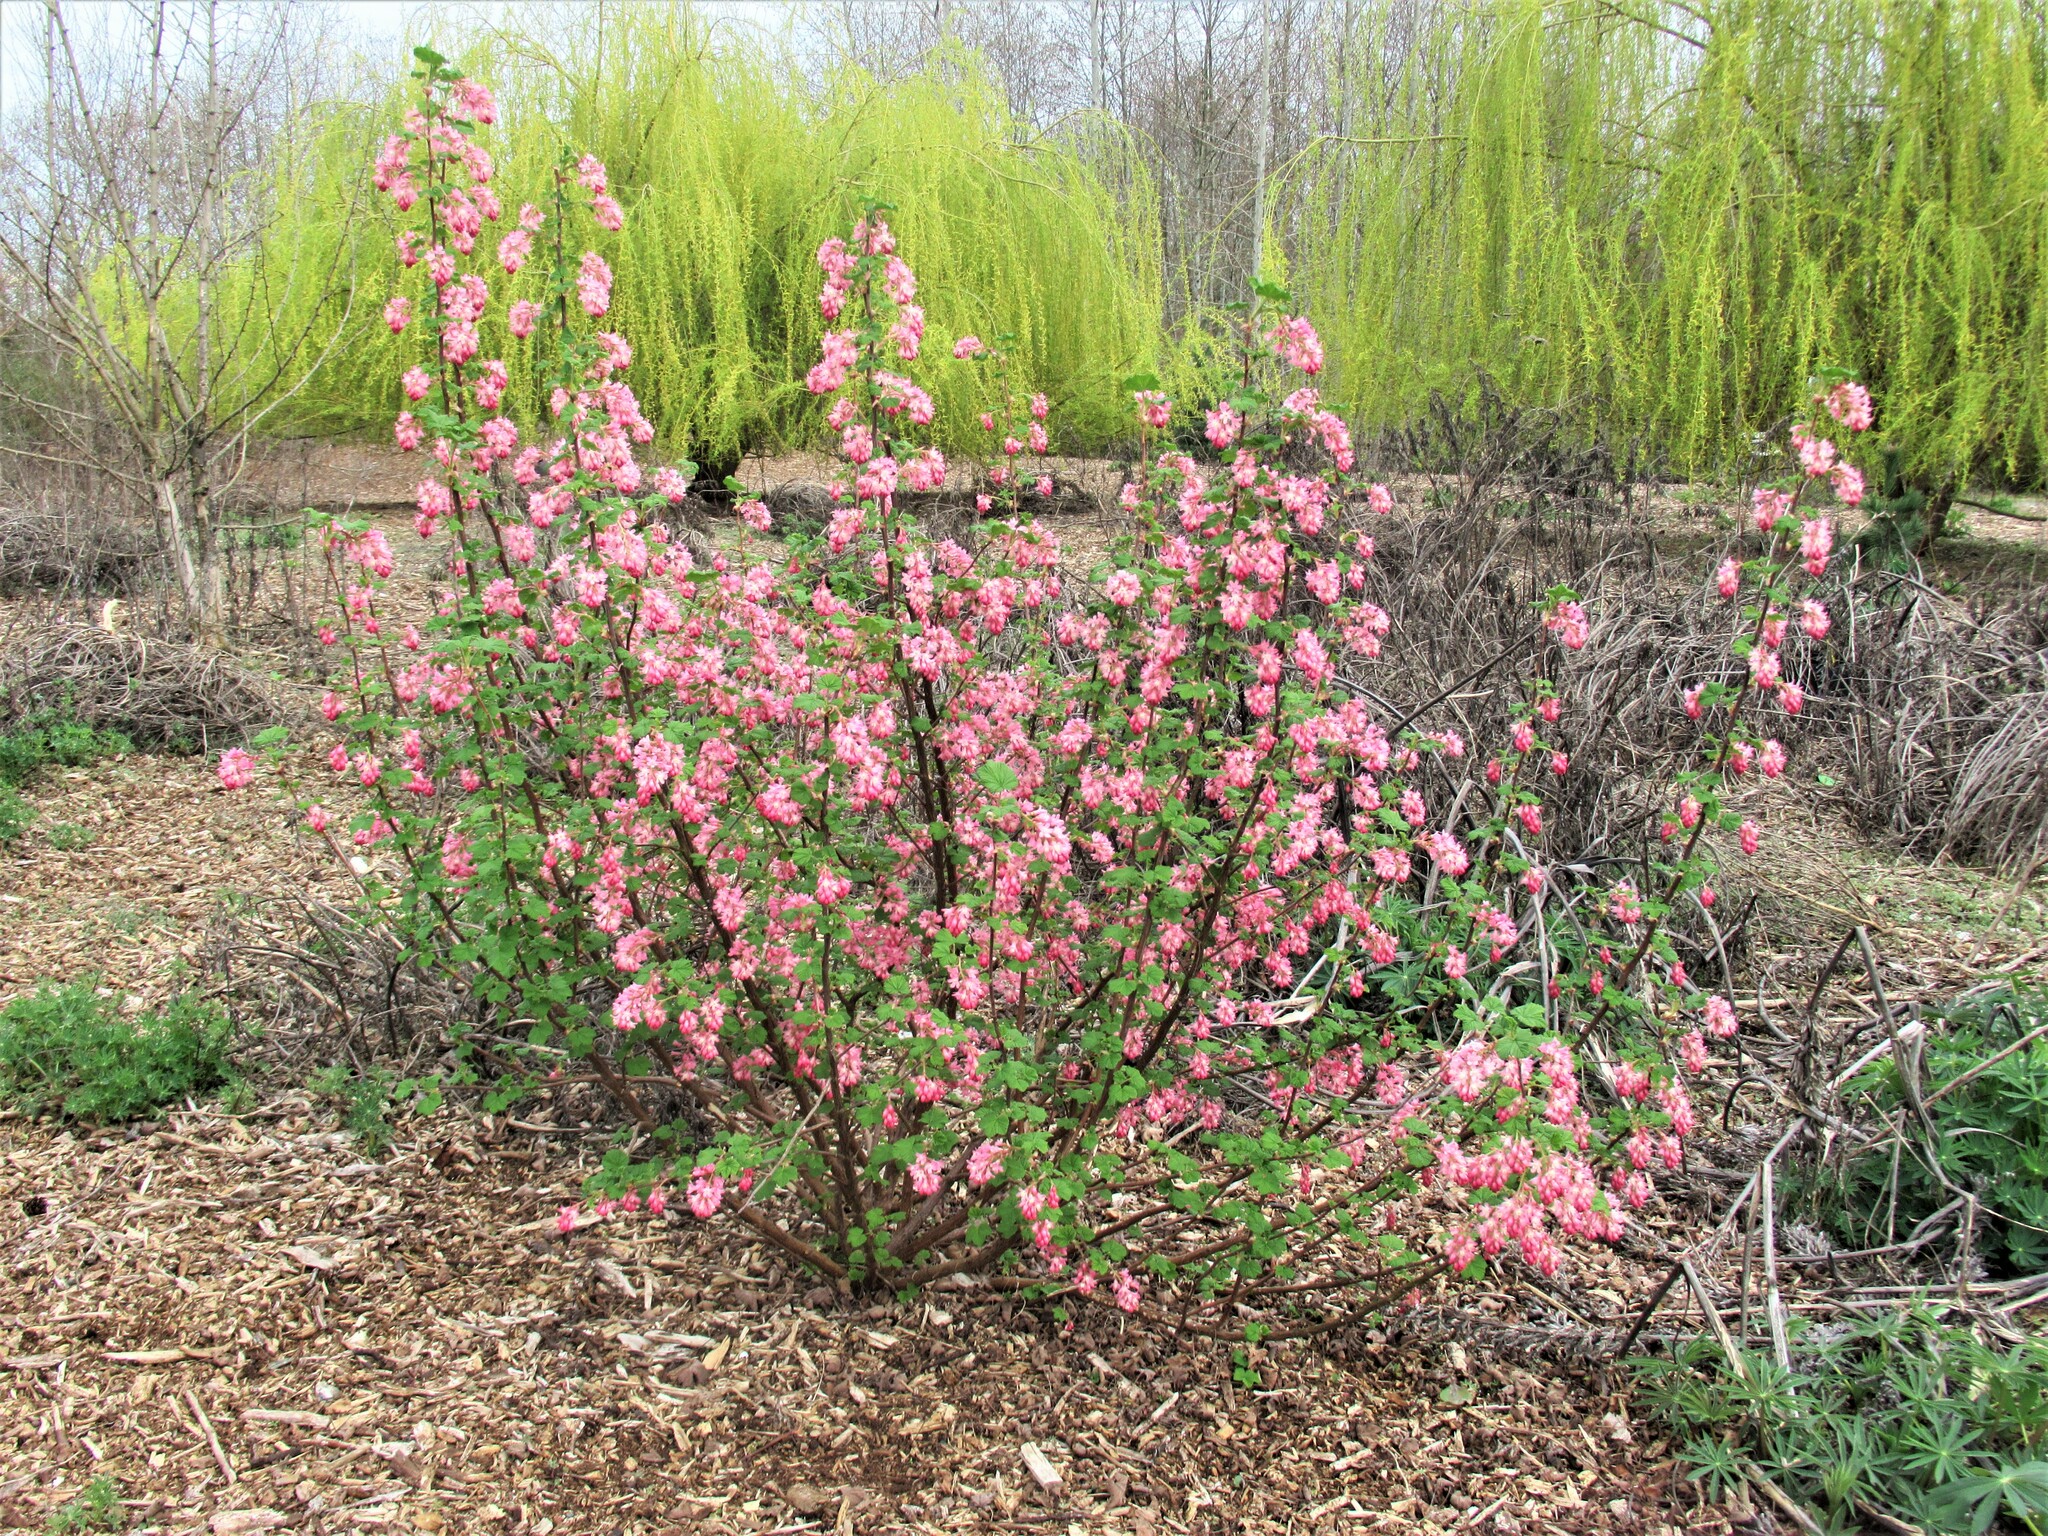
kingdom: Plantae
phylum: Tracheophyta
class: Magnoliopsida
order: Saxifragales
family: Grossulariaceae
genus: Ribes
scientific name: Ribes sanguineum
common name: Flowering currant
